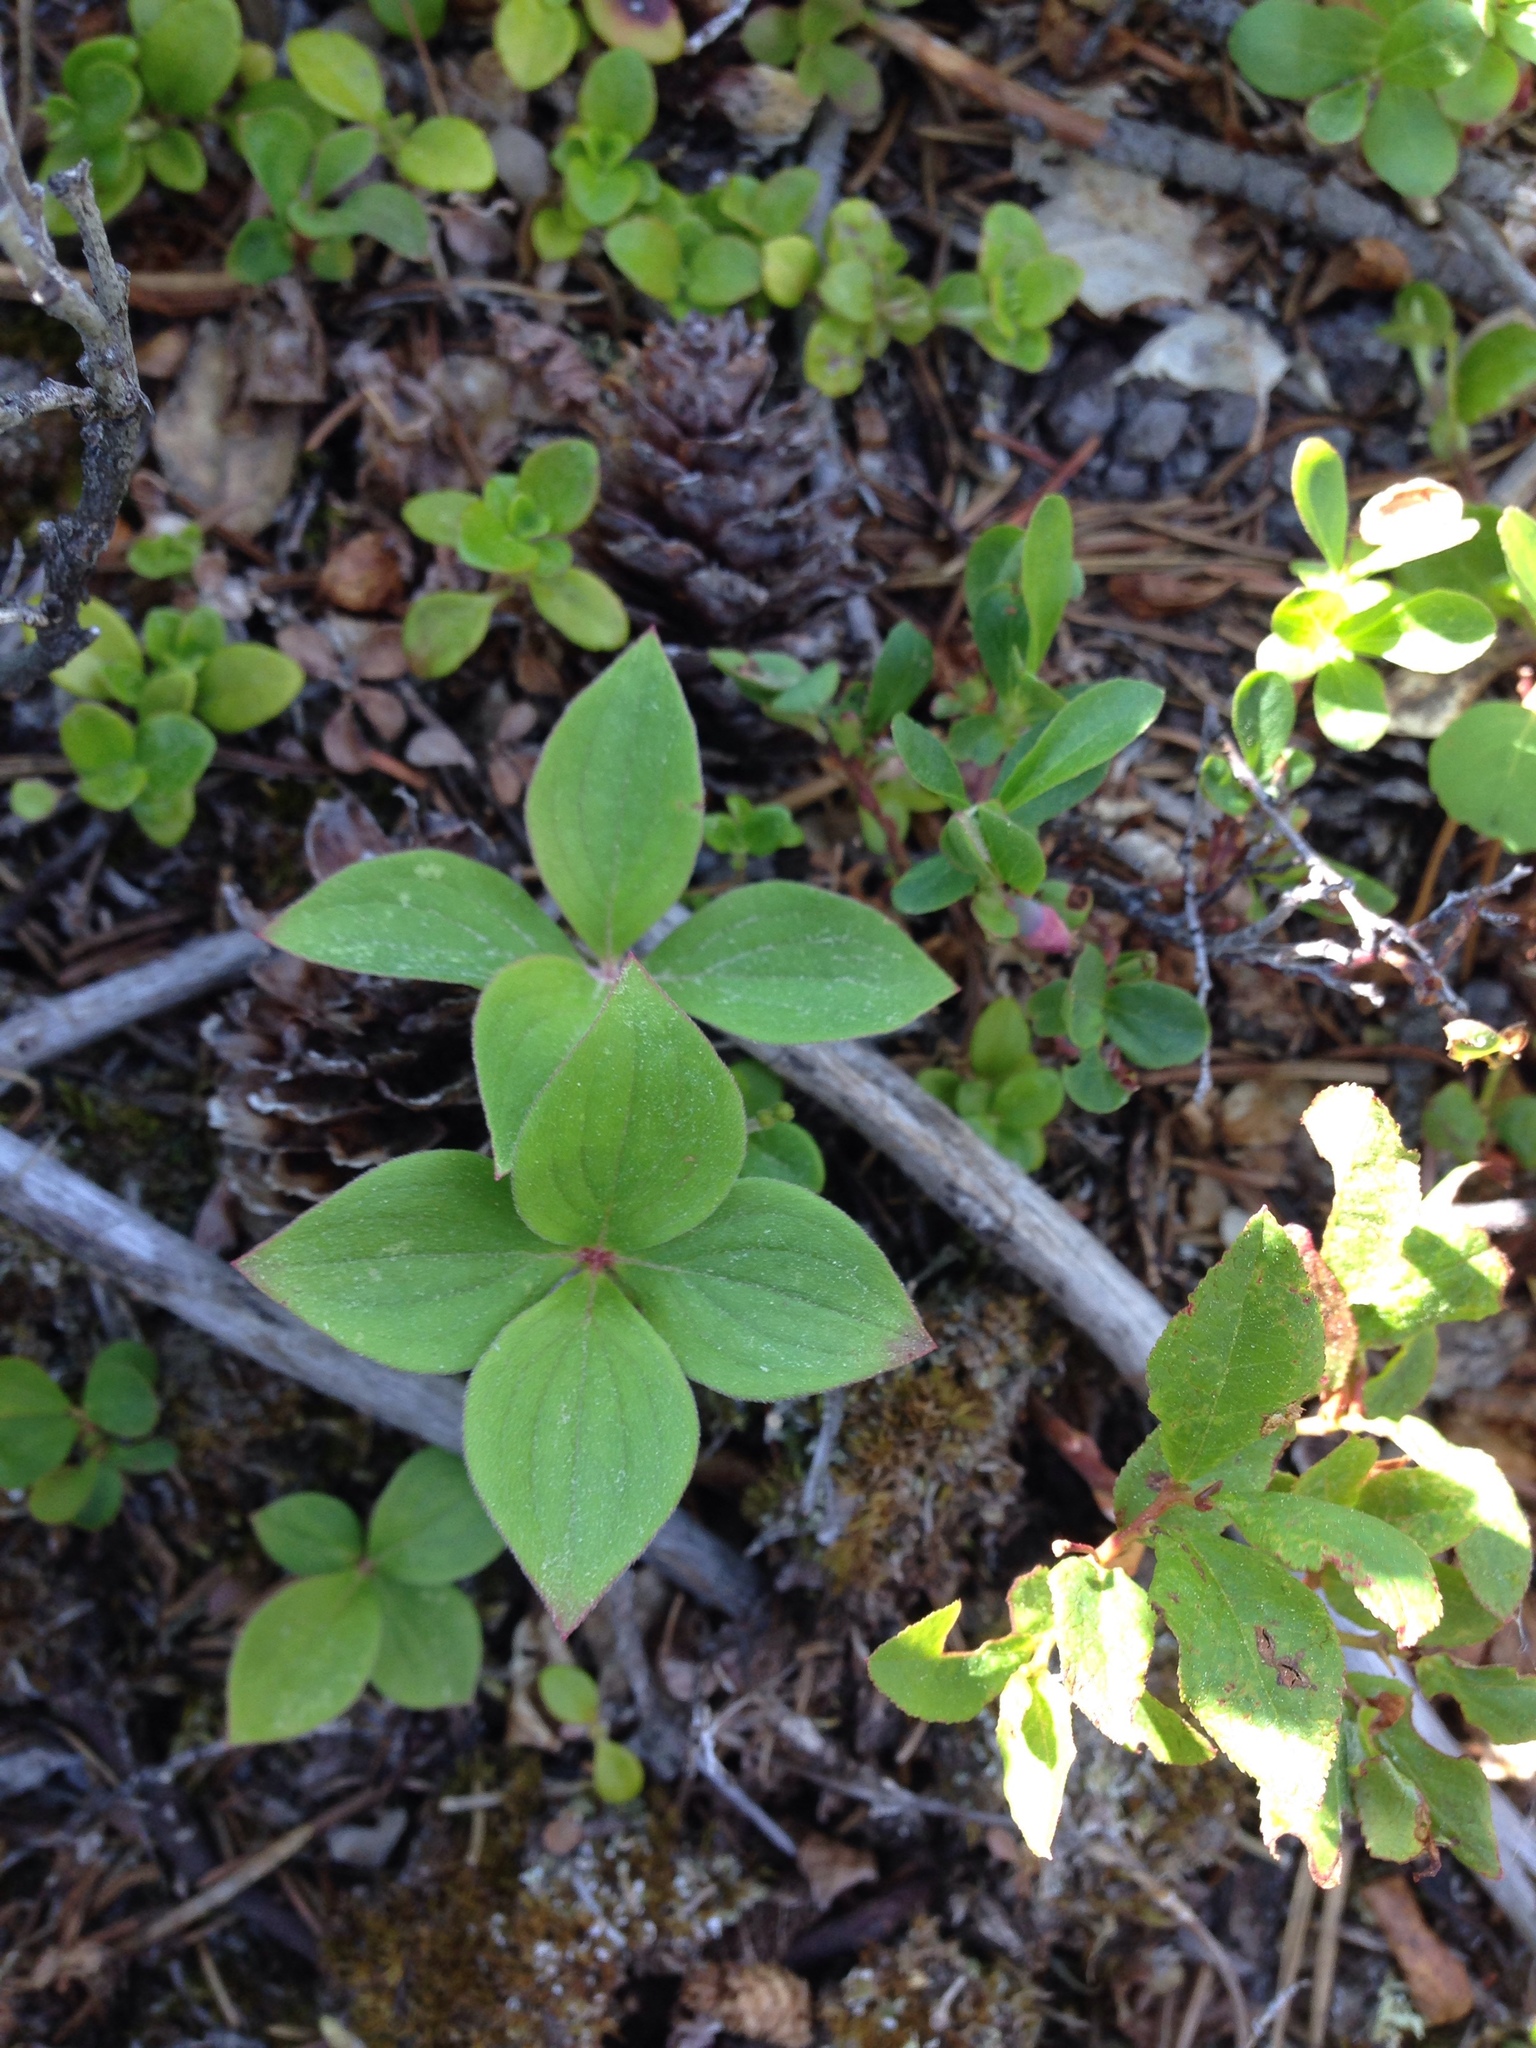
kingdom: Plantae
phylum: Tracheophyta
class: Magnoliopsida
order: Cornales
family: Cornaceae
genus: Cornus
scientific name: Cornus canadensis
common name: Creeping dogwood
